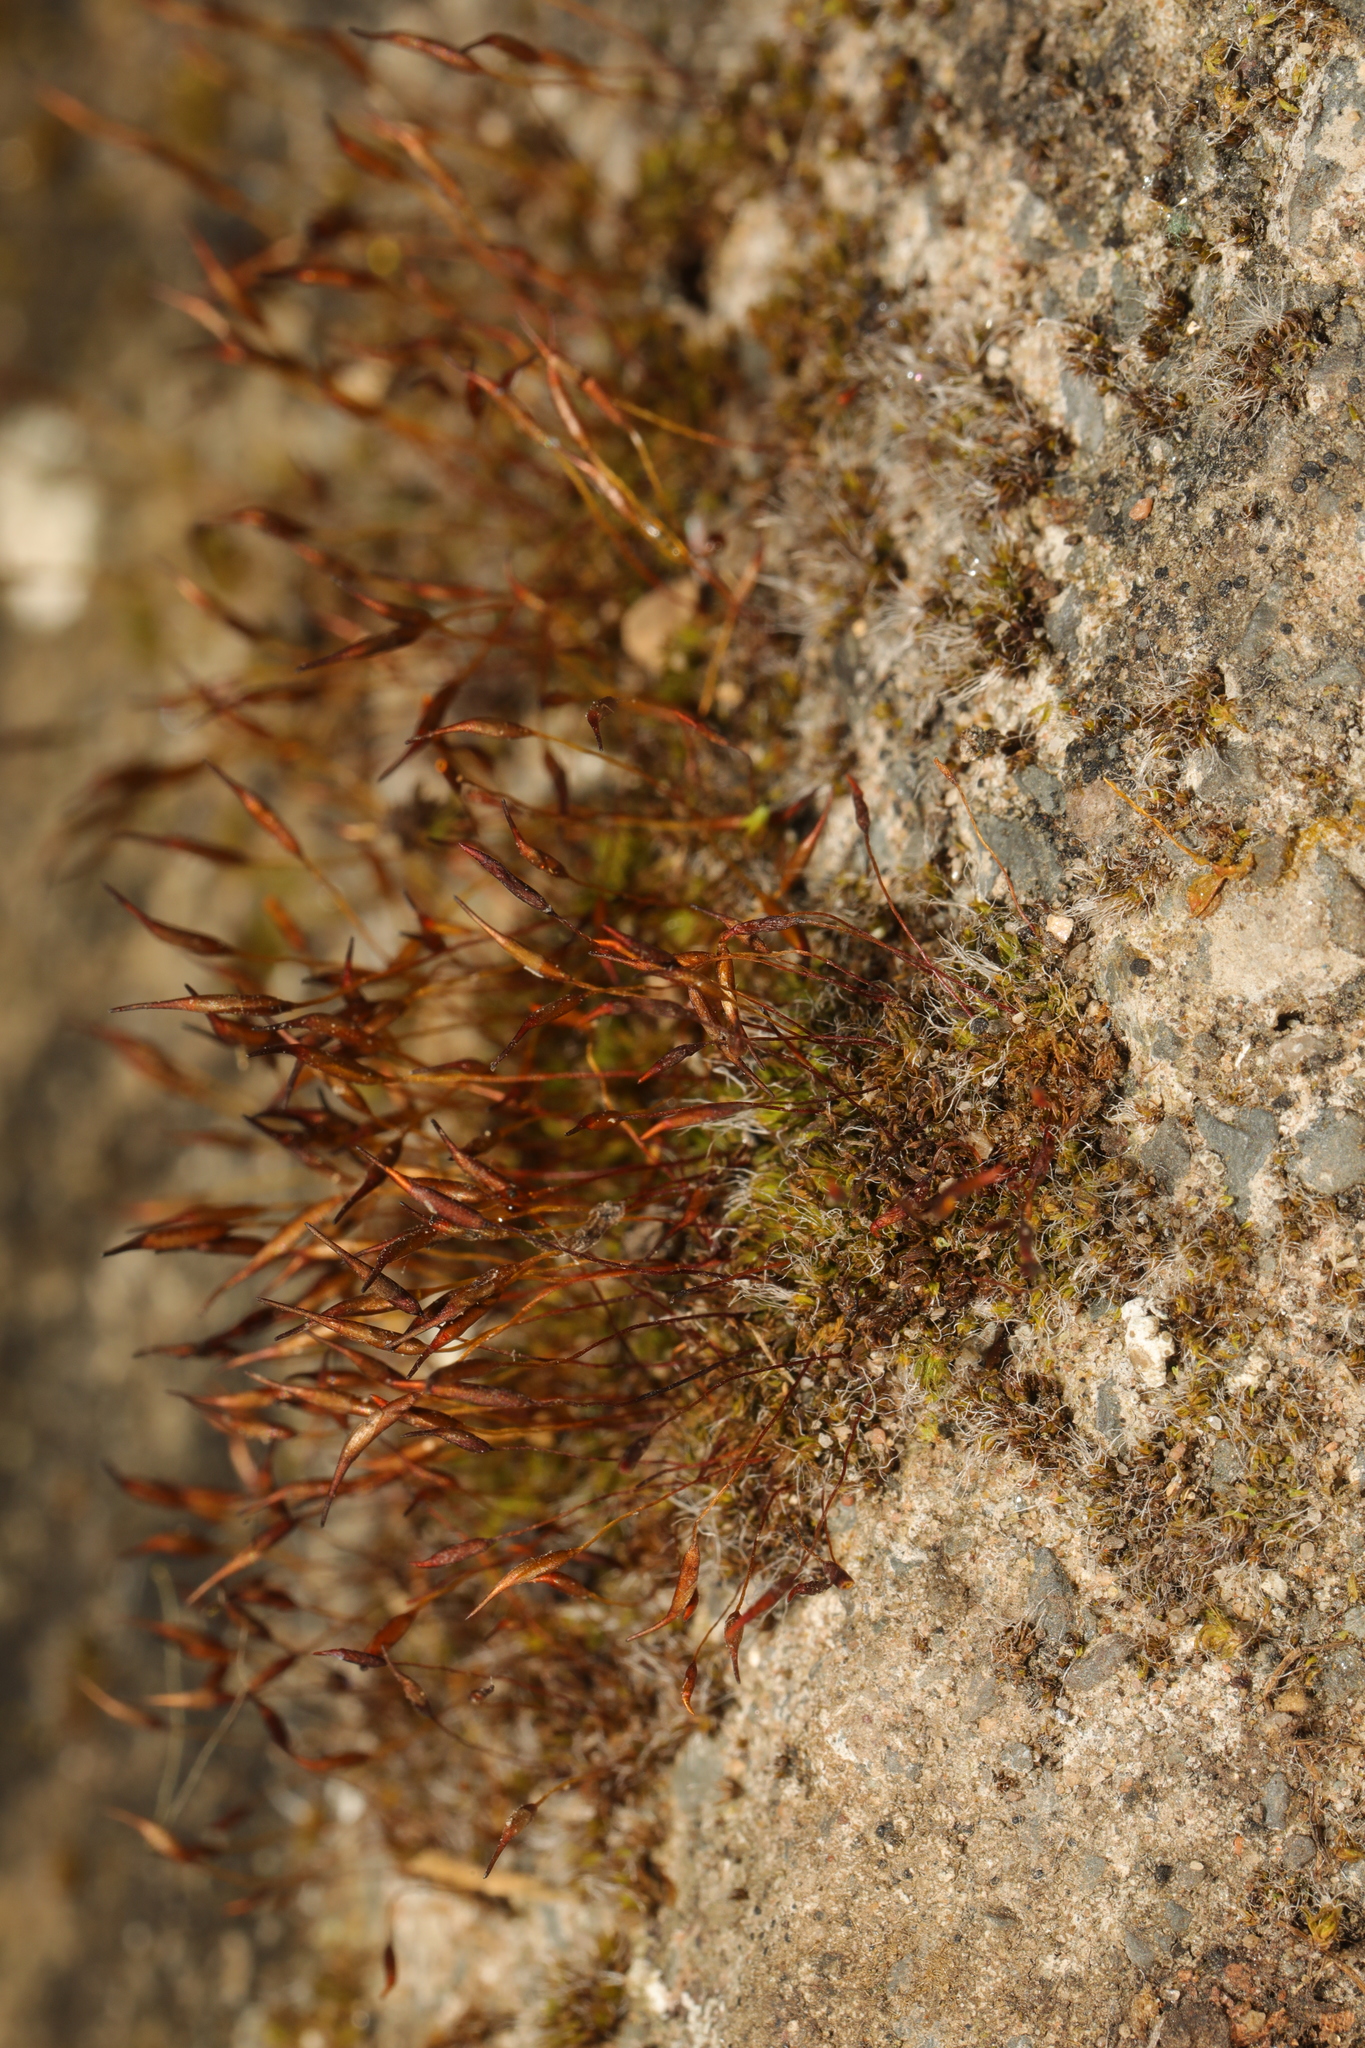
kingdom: Plantae
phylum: Bryophyta
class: Bryopsida
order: Pottiales
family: Pottiaceae
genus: Tortula
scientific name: Tortula muralis
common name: Wall screw-moss
